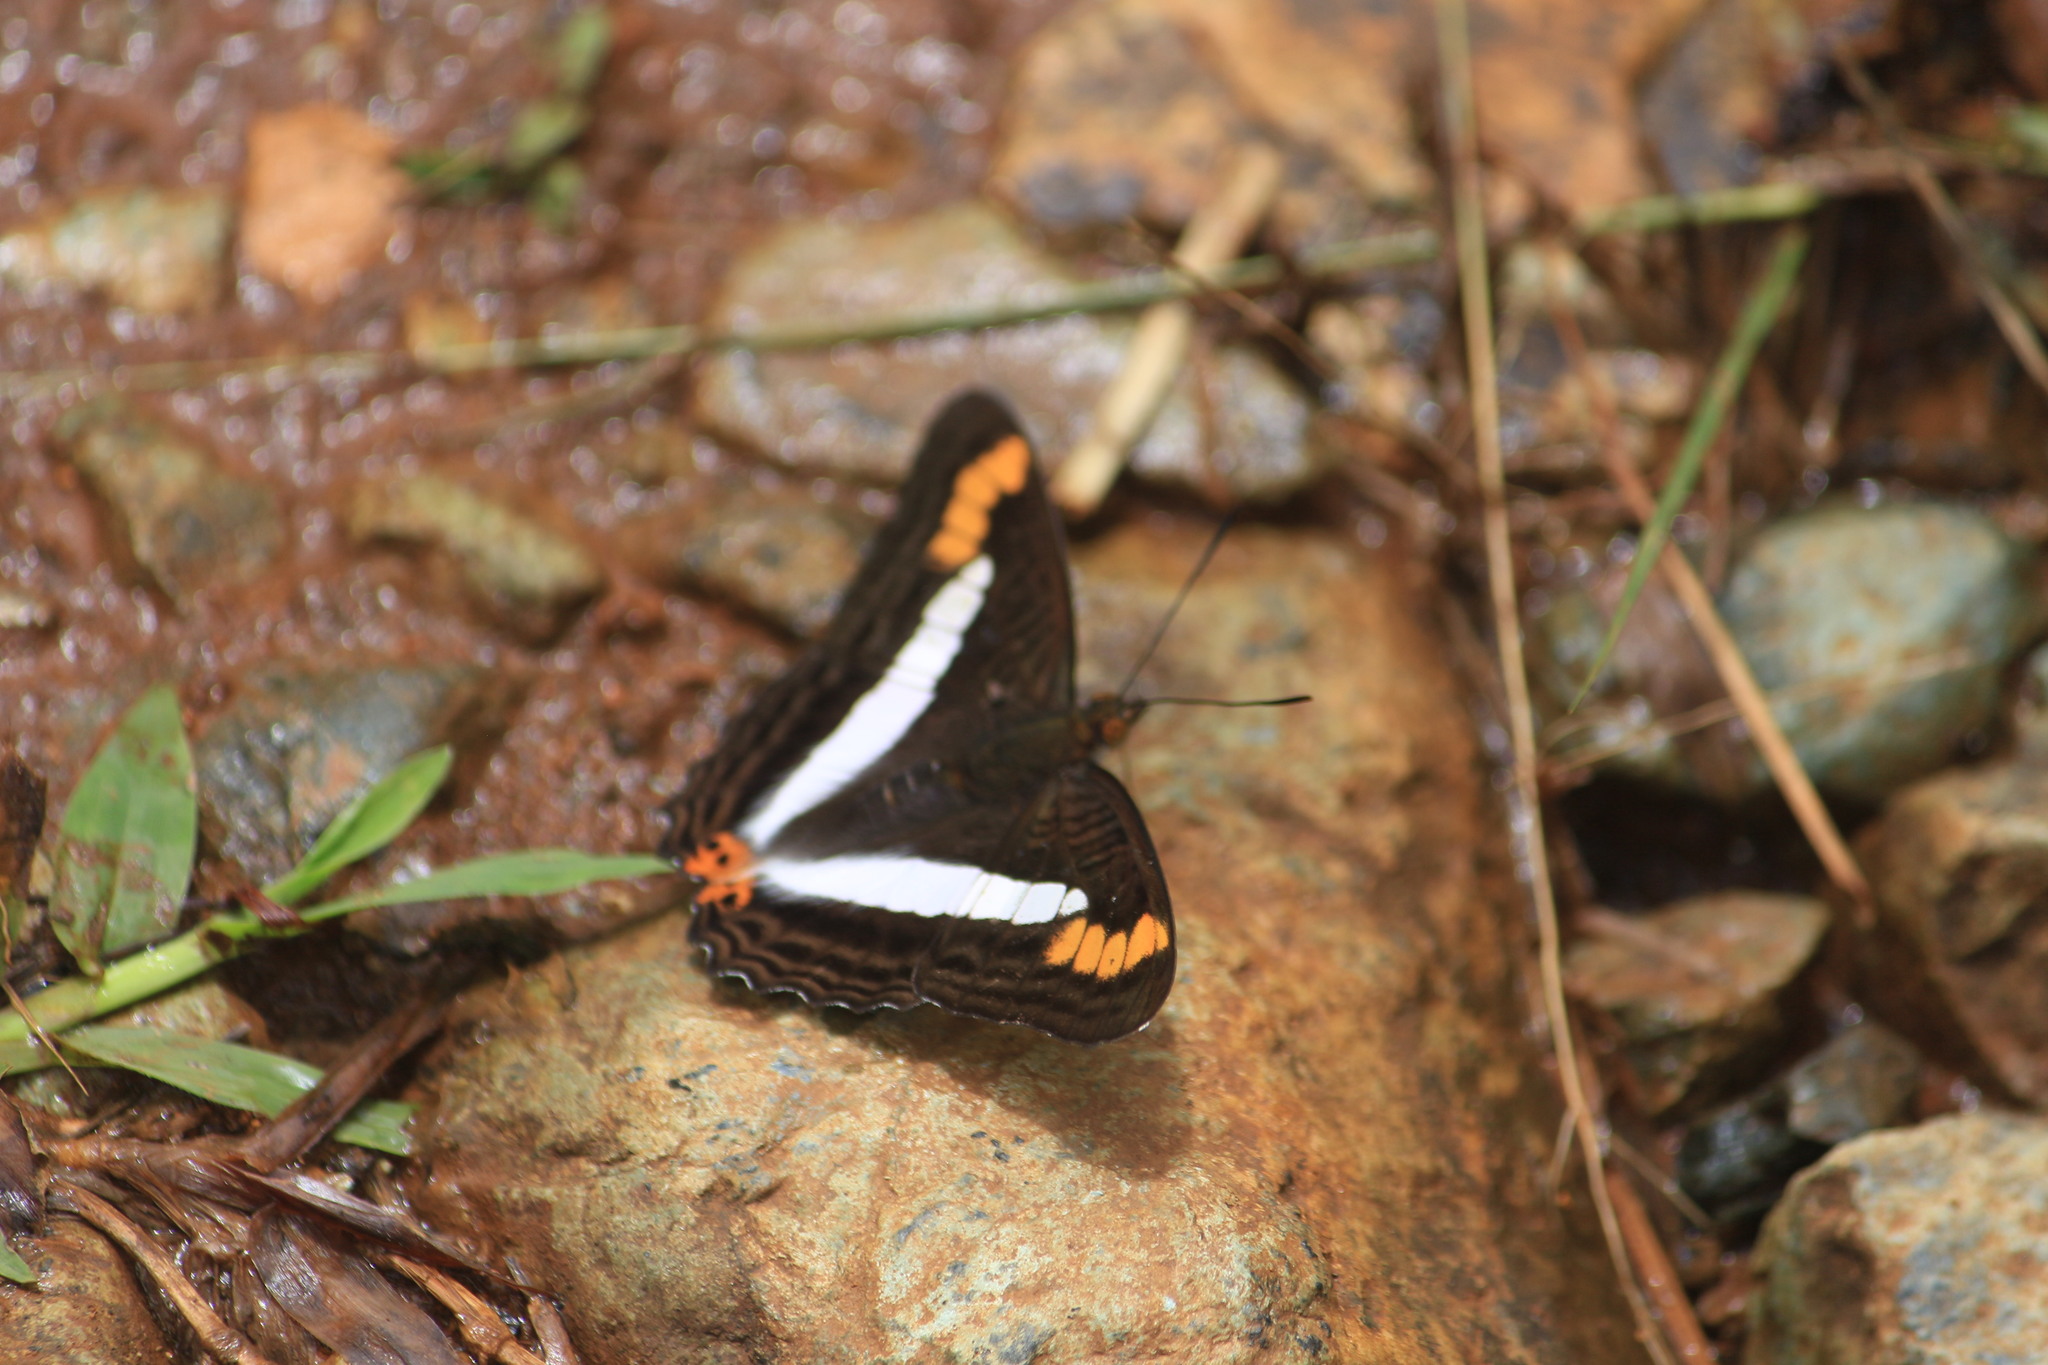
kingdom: Animalia
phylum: Arthropoda
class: Insecta
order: Lepidoptera
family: Nymphalidae
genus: Limenitis
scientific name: Limenitis pithys
